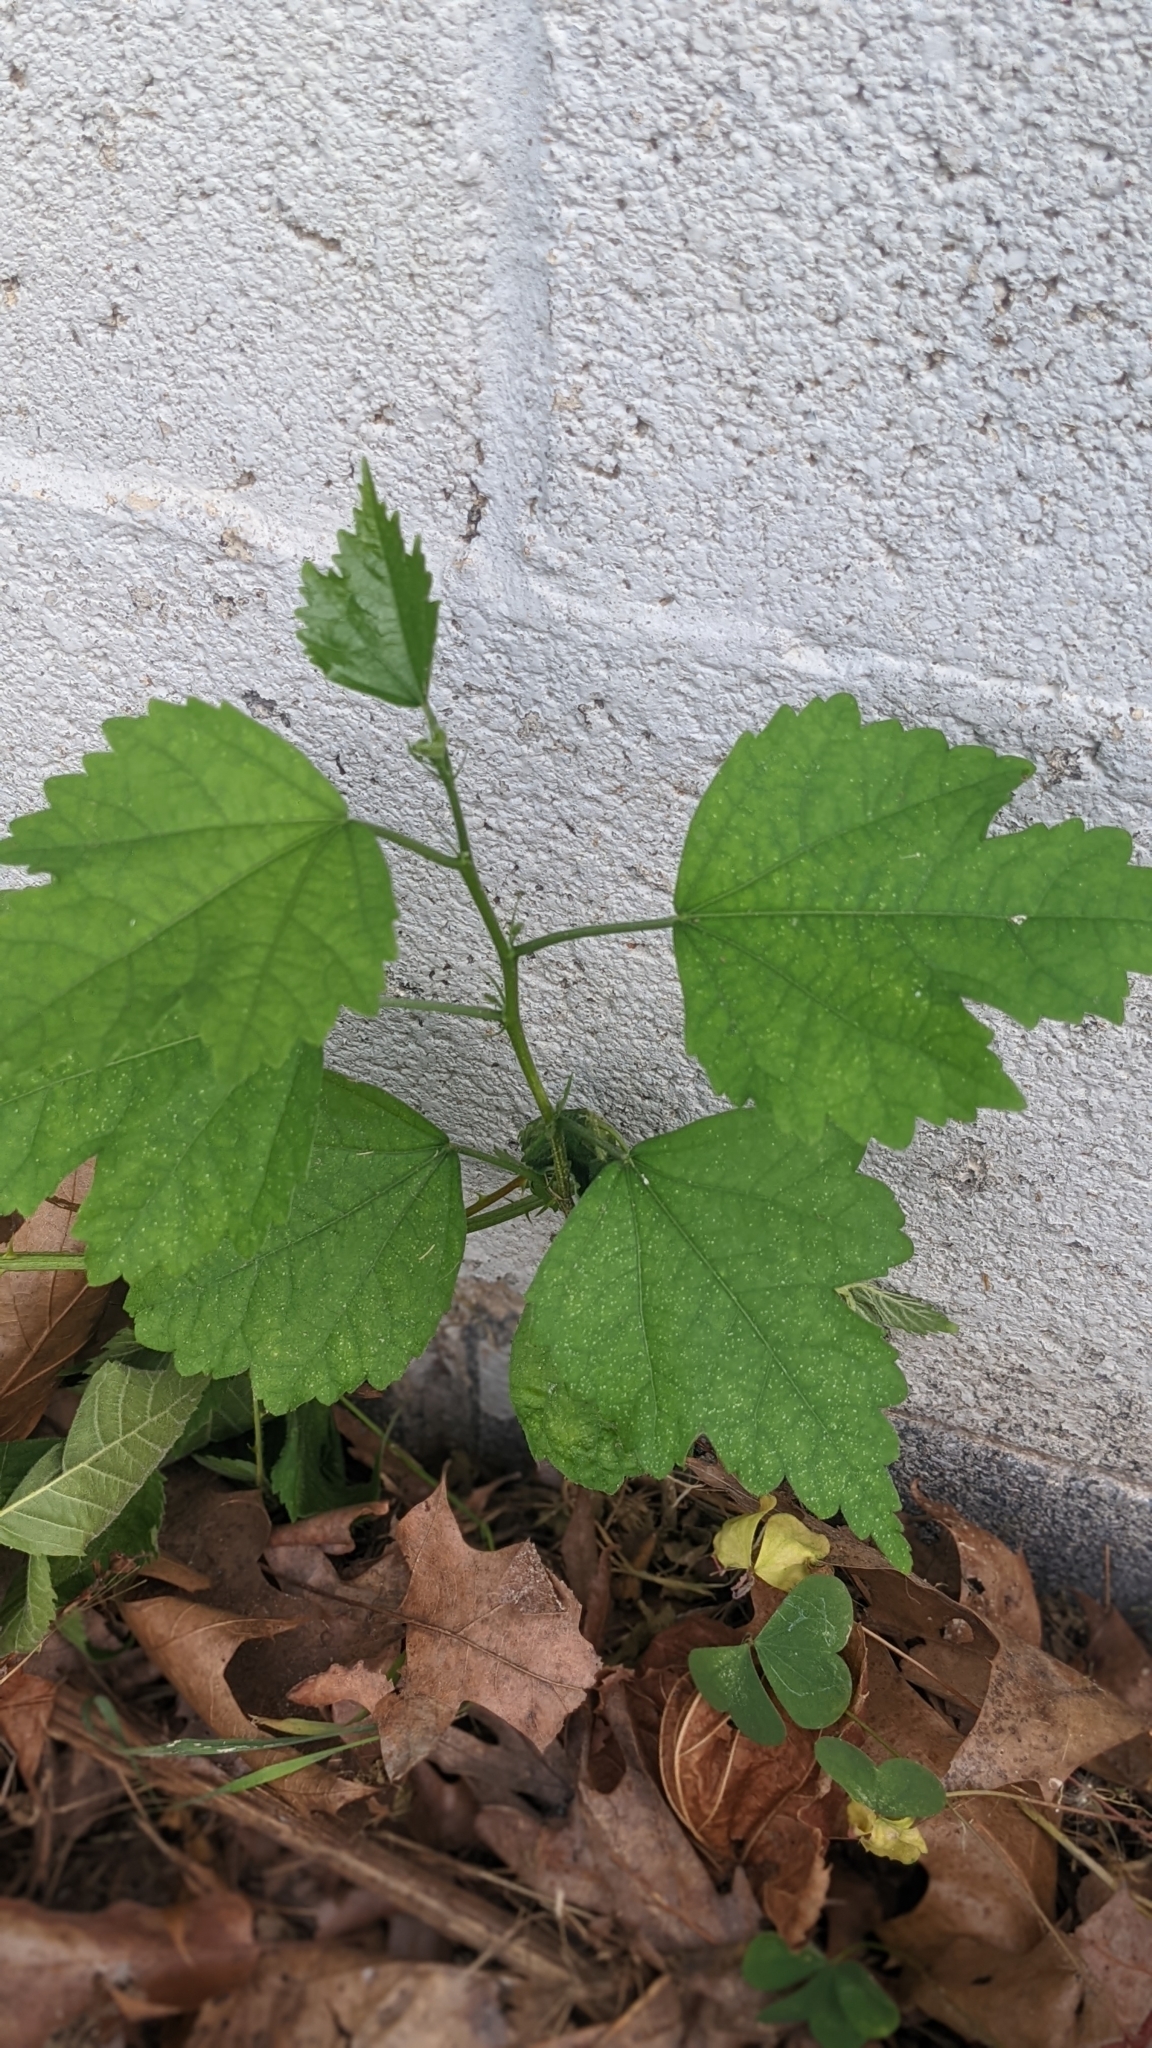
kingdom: Plantae
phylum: Tracheophyta
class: Magnoliopsida
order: Rosales
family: Moraceae
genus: Morus
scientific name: Morus alba
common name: White mulberry
